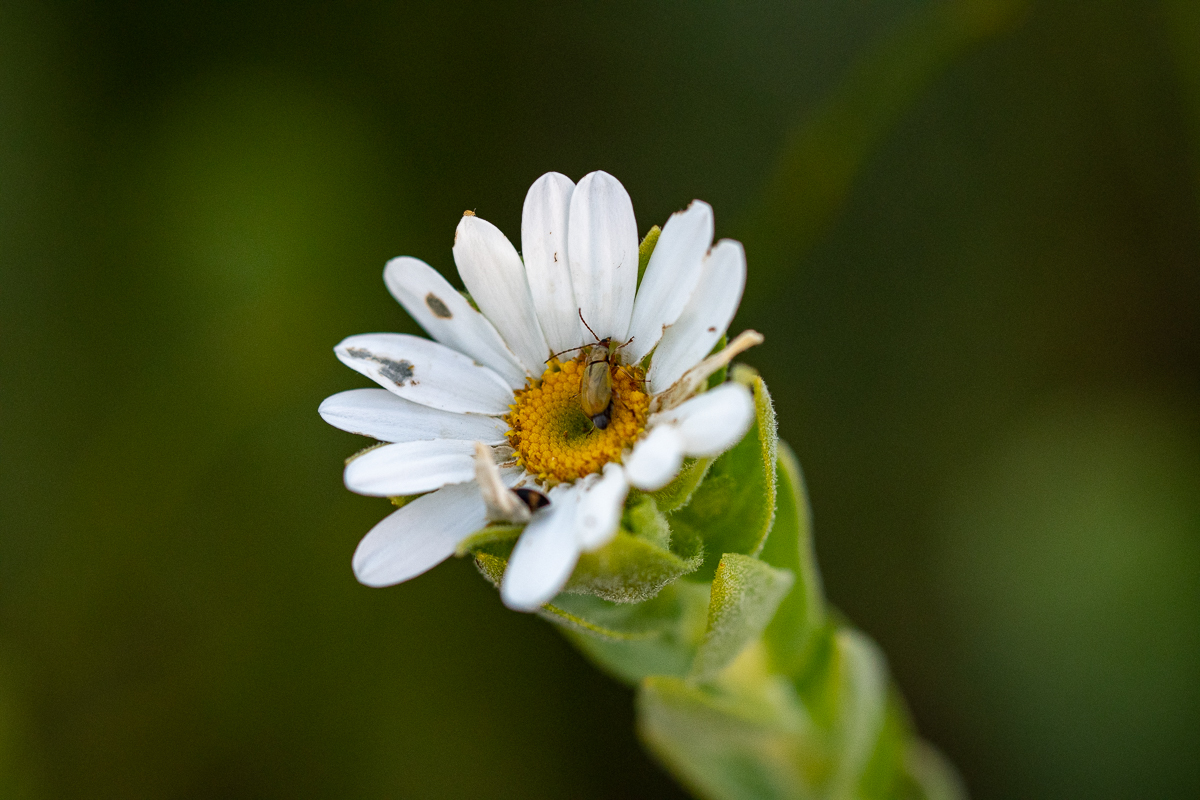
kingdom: Plantae
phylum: Tracheophyta
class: Magnoliopsida
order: Asterales
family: Asteraceae
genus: Osmitopsis
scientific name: Osmitopsis asteriscoides
